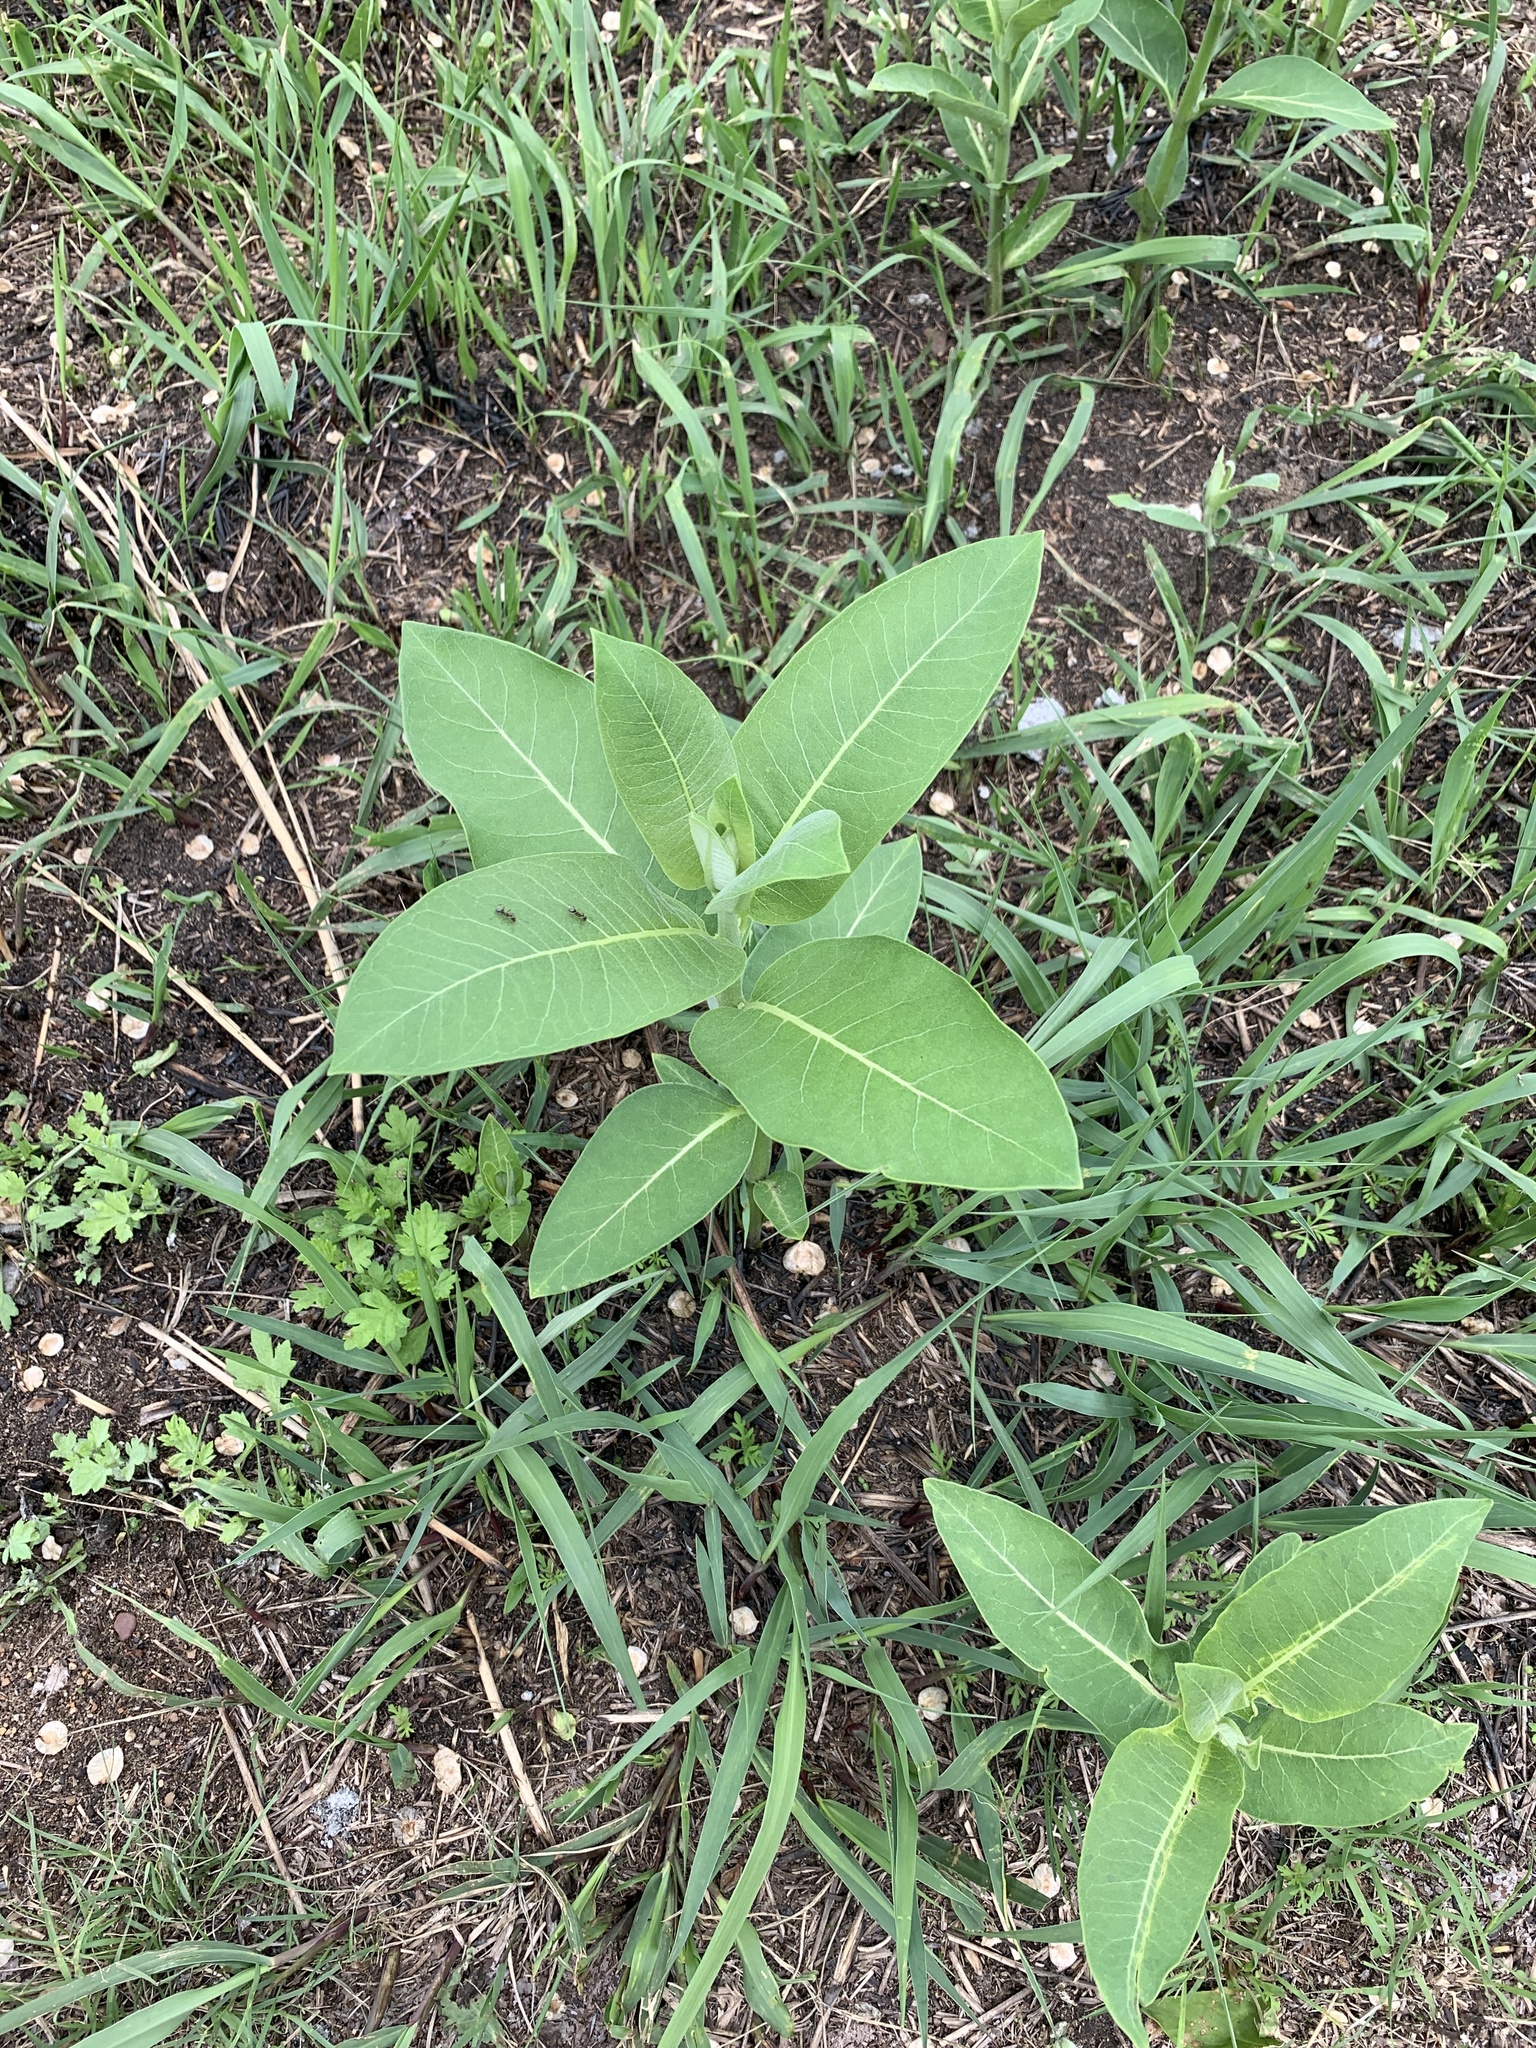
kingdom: Plantae
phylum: Tracheophyta
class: Magnoliopsida
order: Gentianales
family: Apocynaceae
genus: Asclepias
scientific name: Asclepias syriaca
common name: Common milkweed
